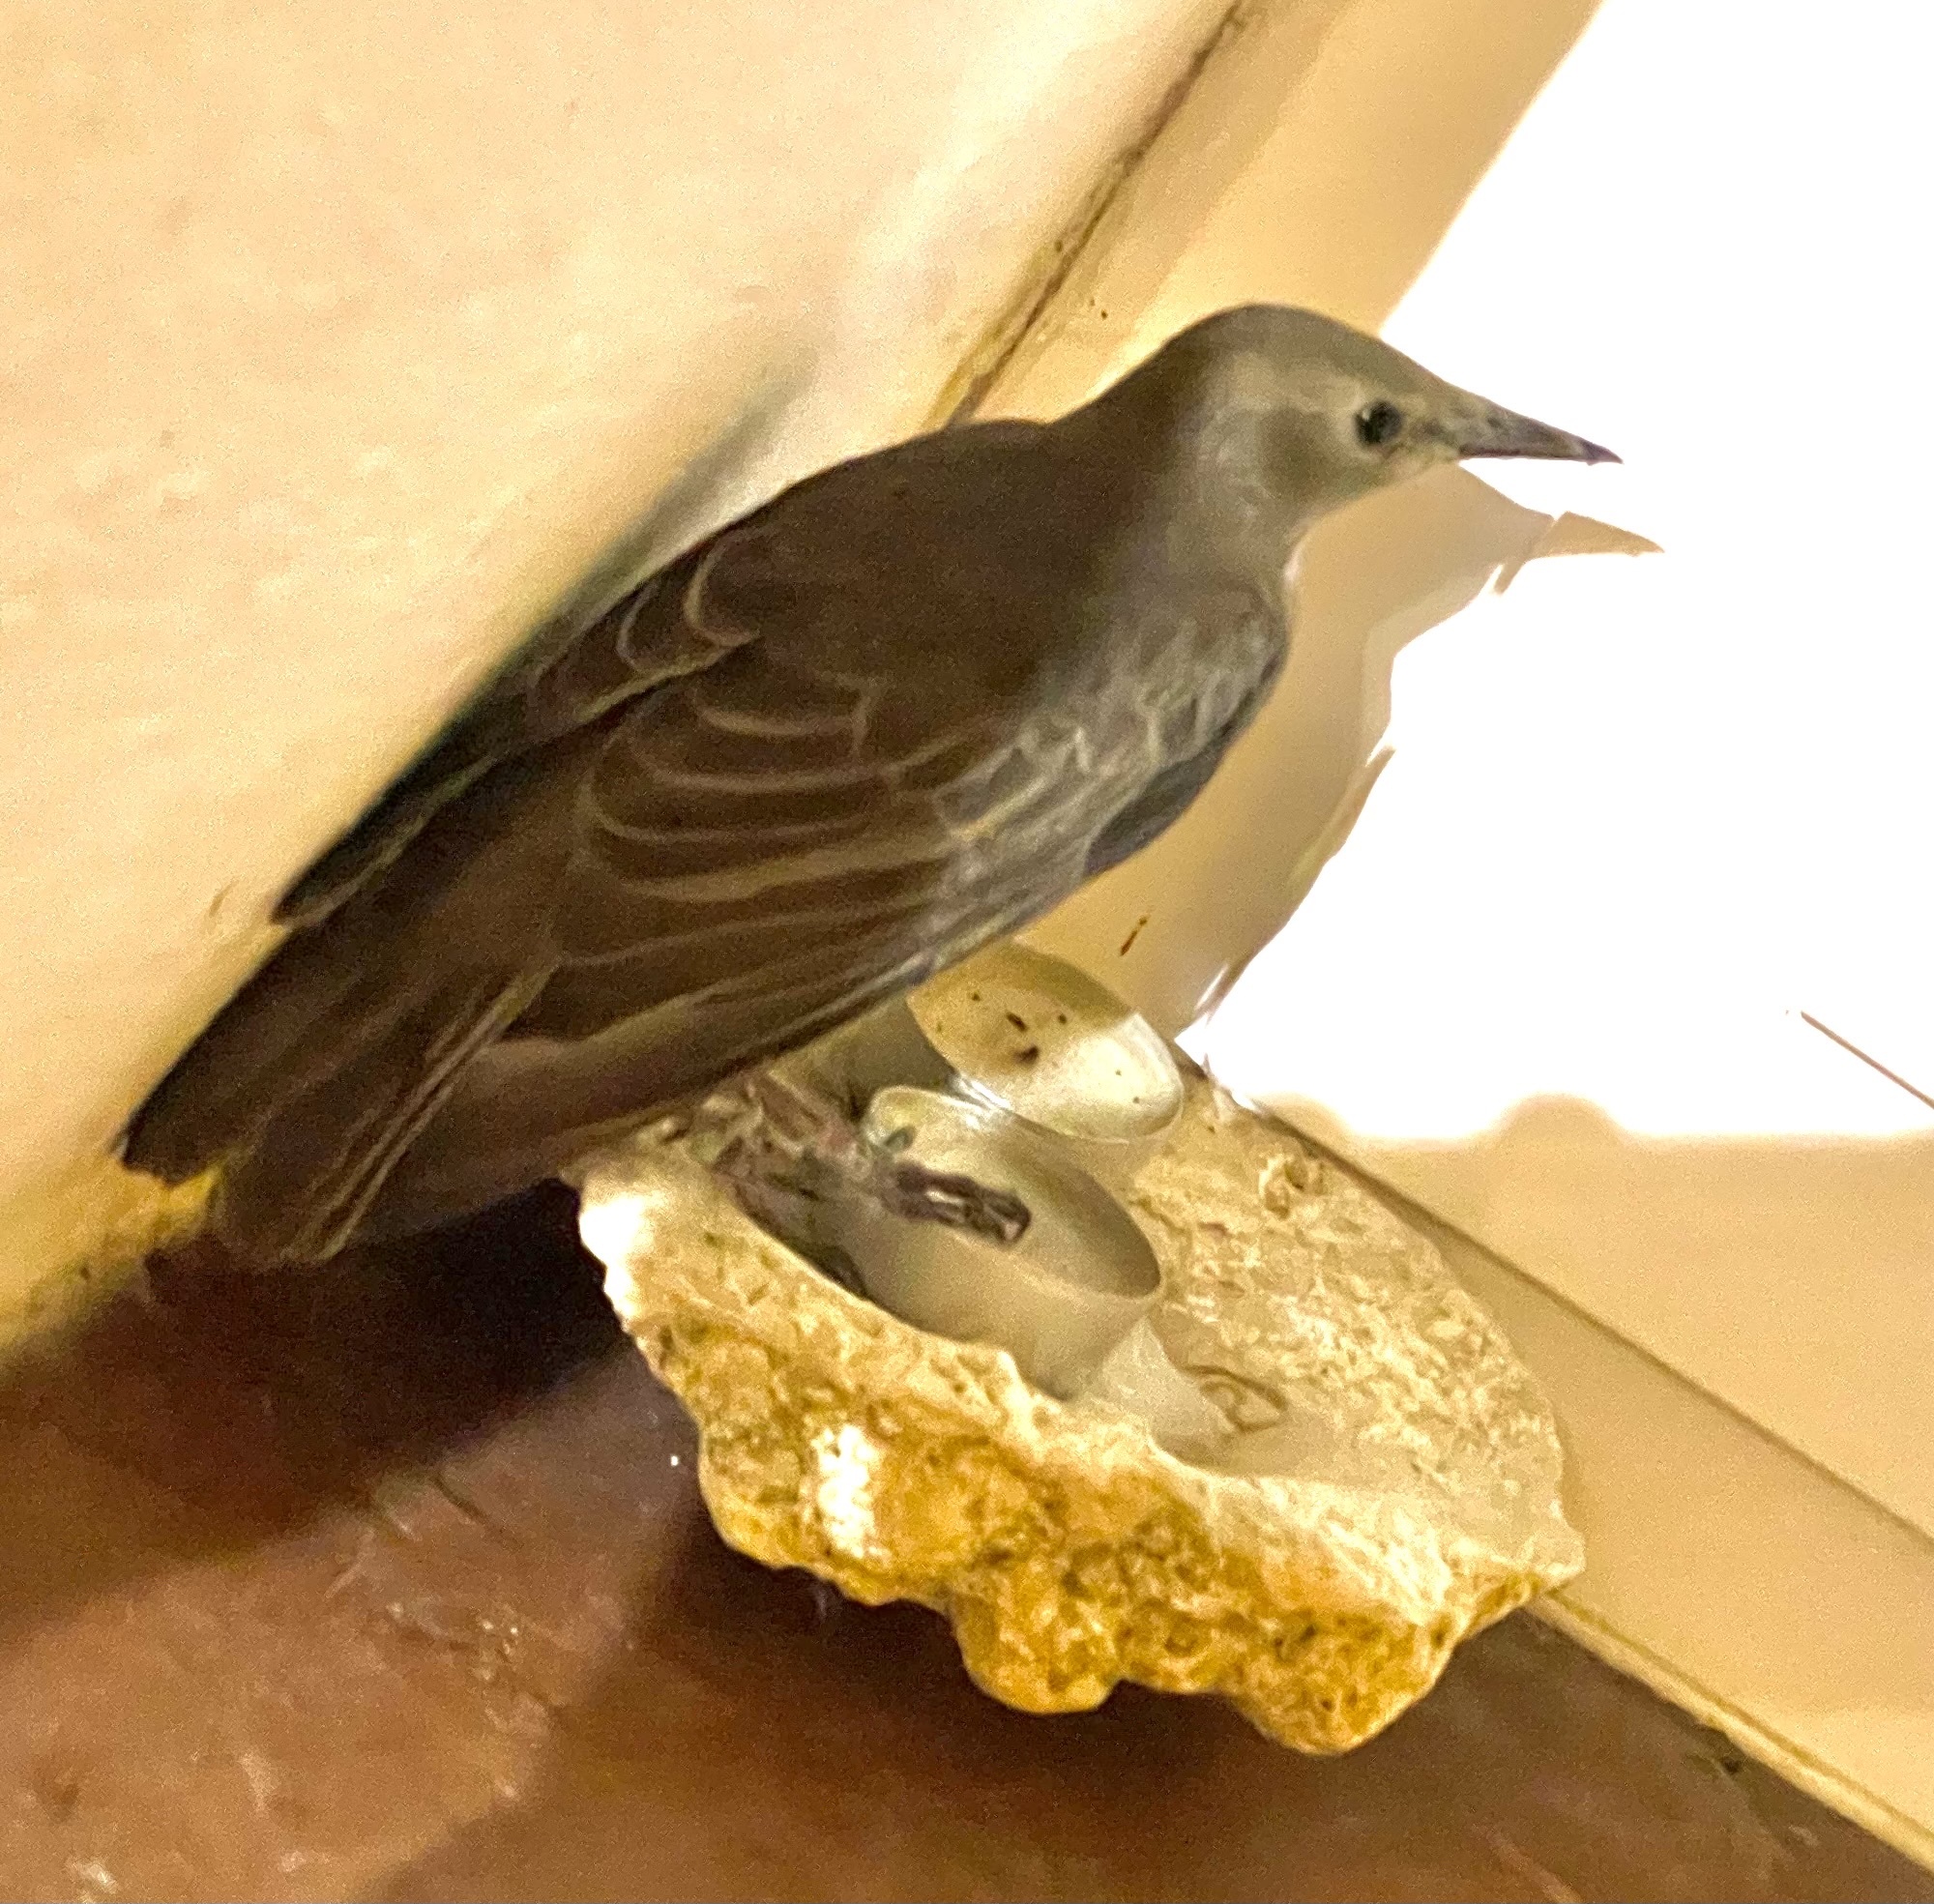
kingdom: Animalia
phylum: Chordata
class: Aves
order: Passeriformes
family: Sturnidae
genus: Sturnus
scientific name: Sturnus vulgaris
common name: Common starling
